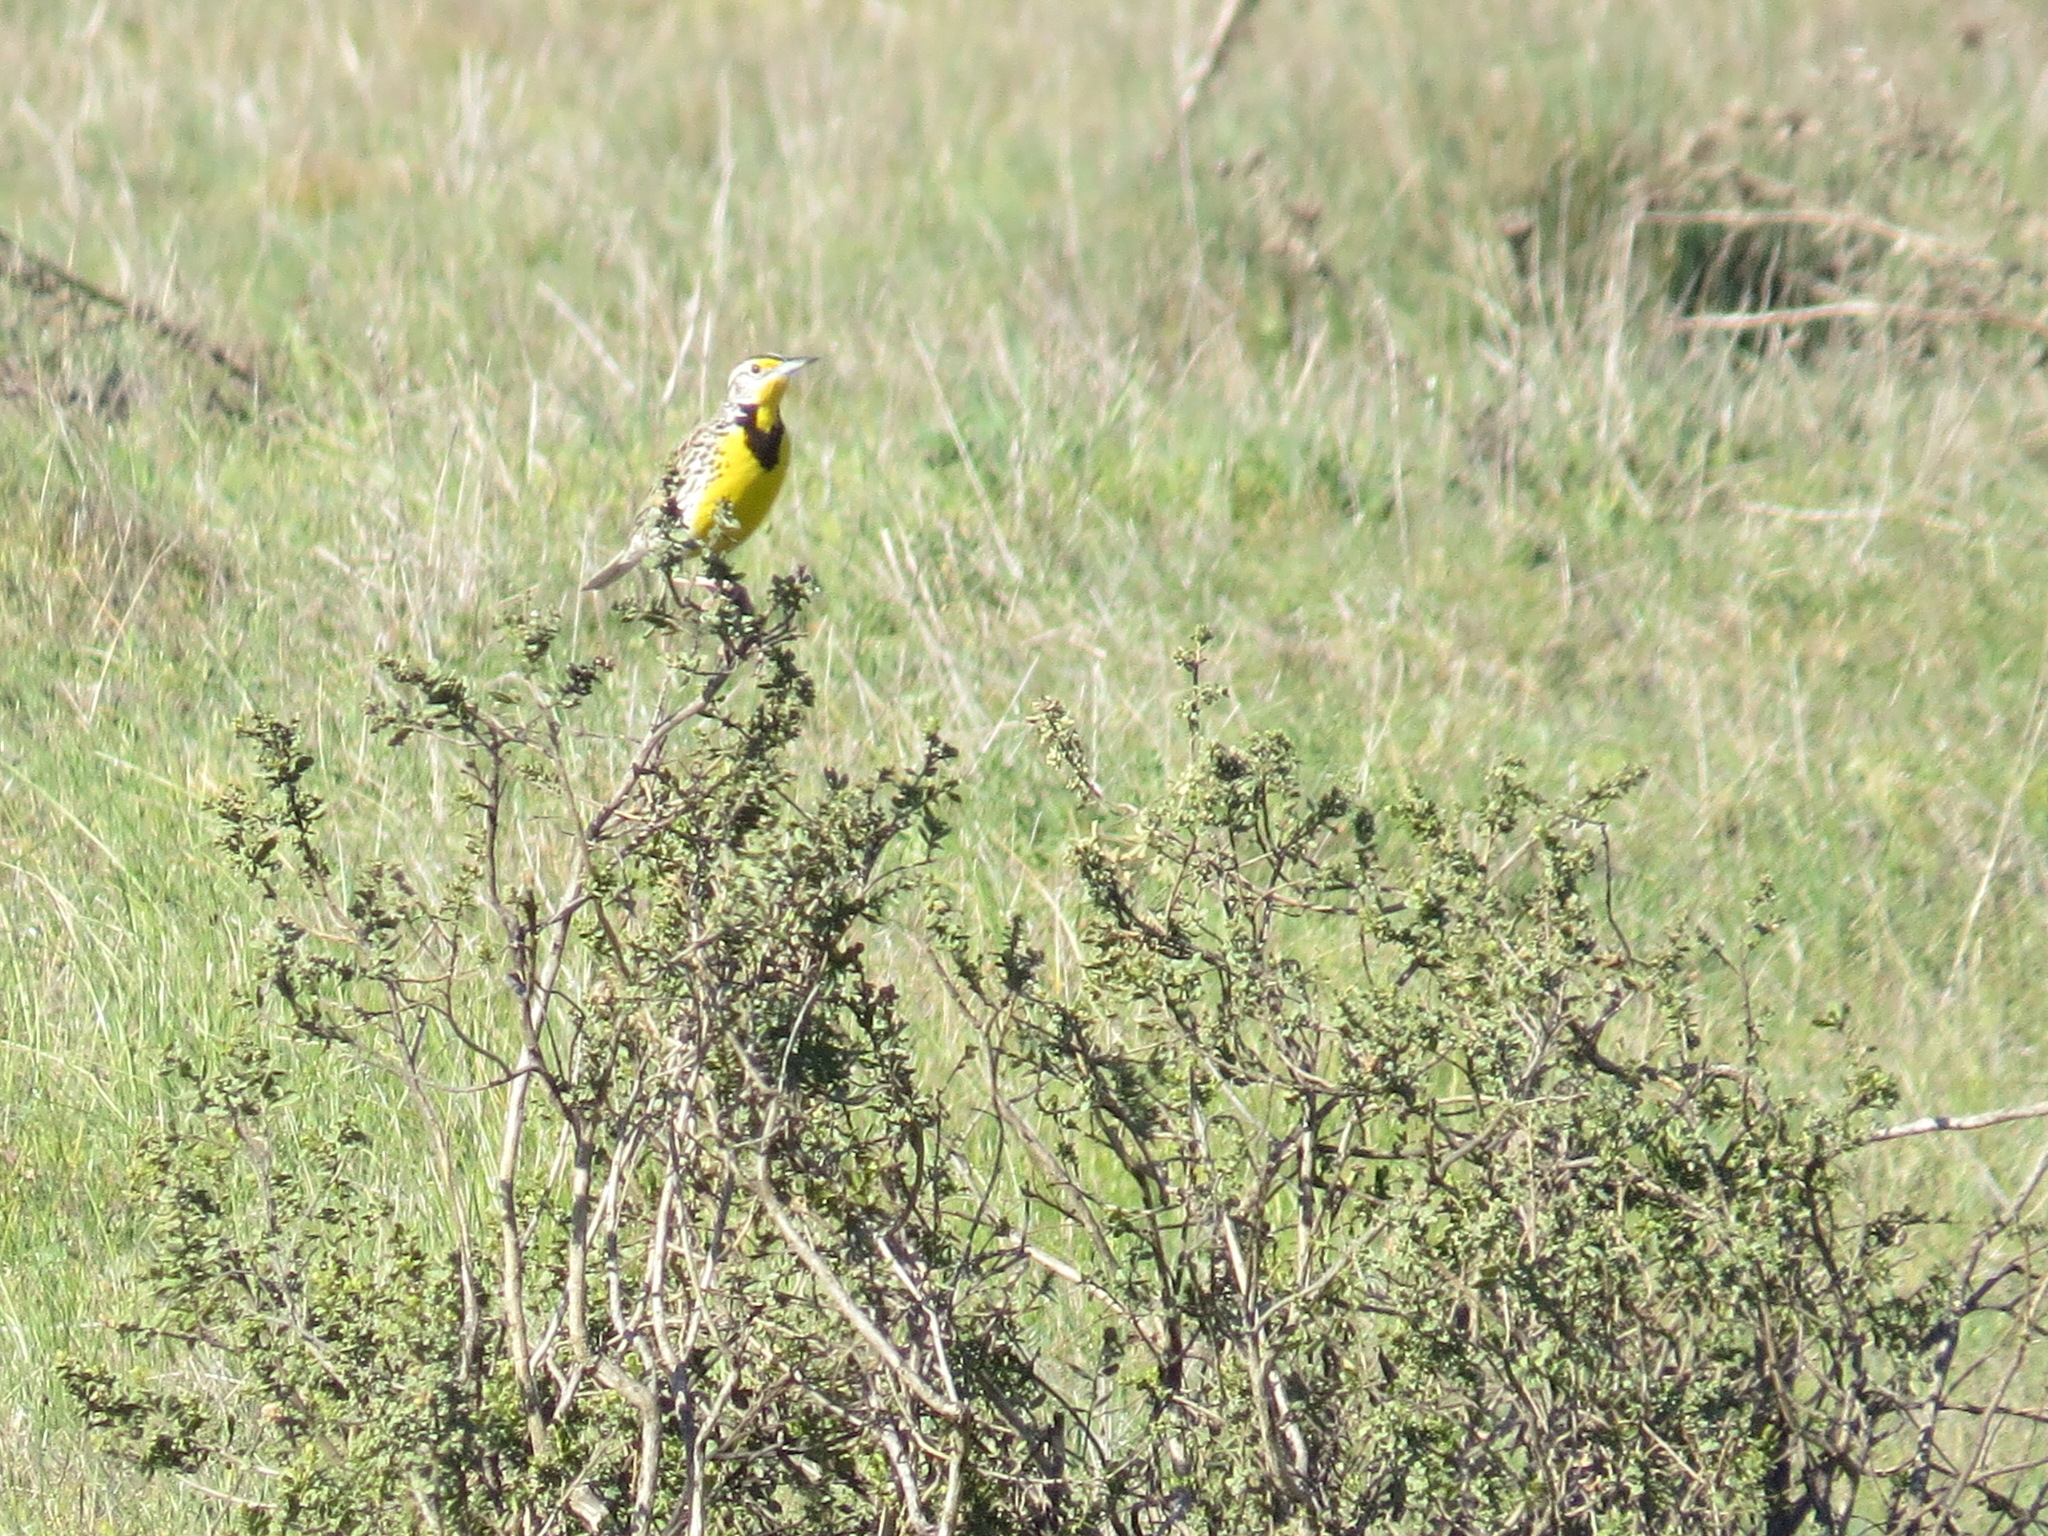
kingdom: Animalia
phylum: Chordata
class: Aves
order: Passeriformes
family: Icteridae
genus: Sturnella
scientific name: Sturnella neglecta
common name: Western meadowlark
